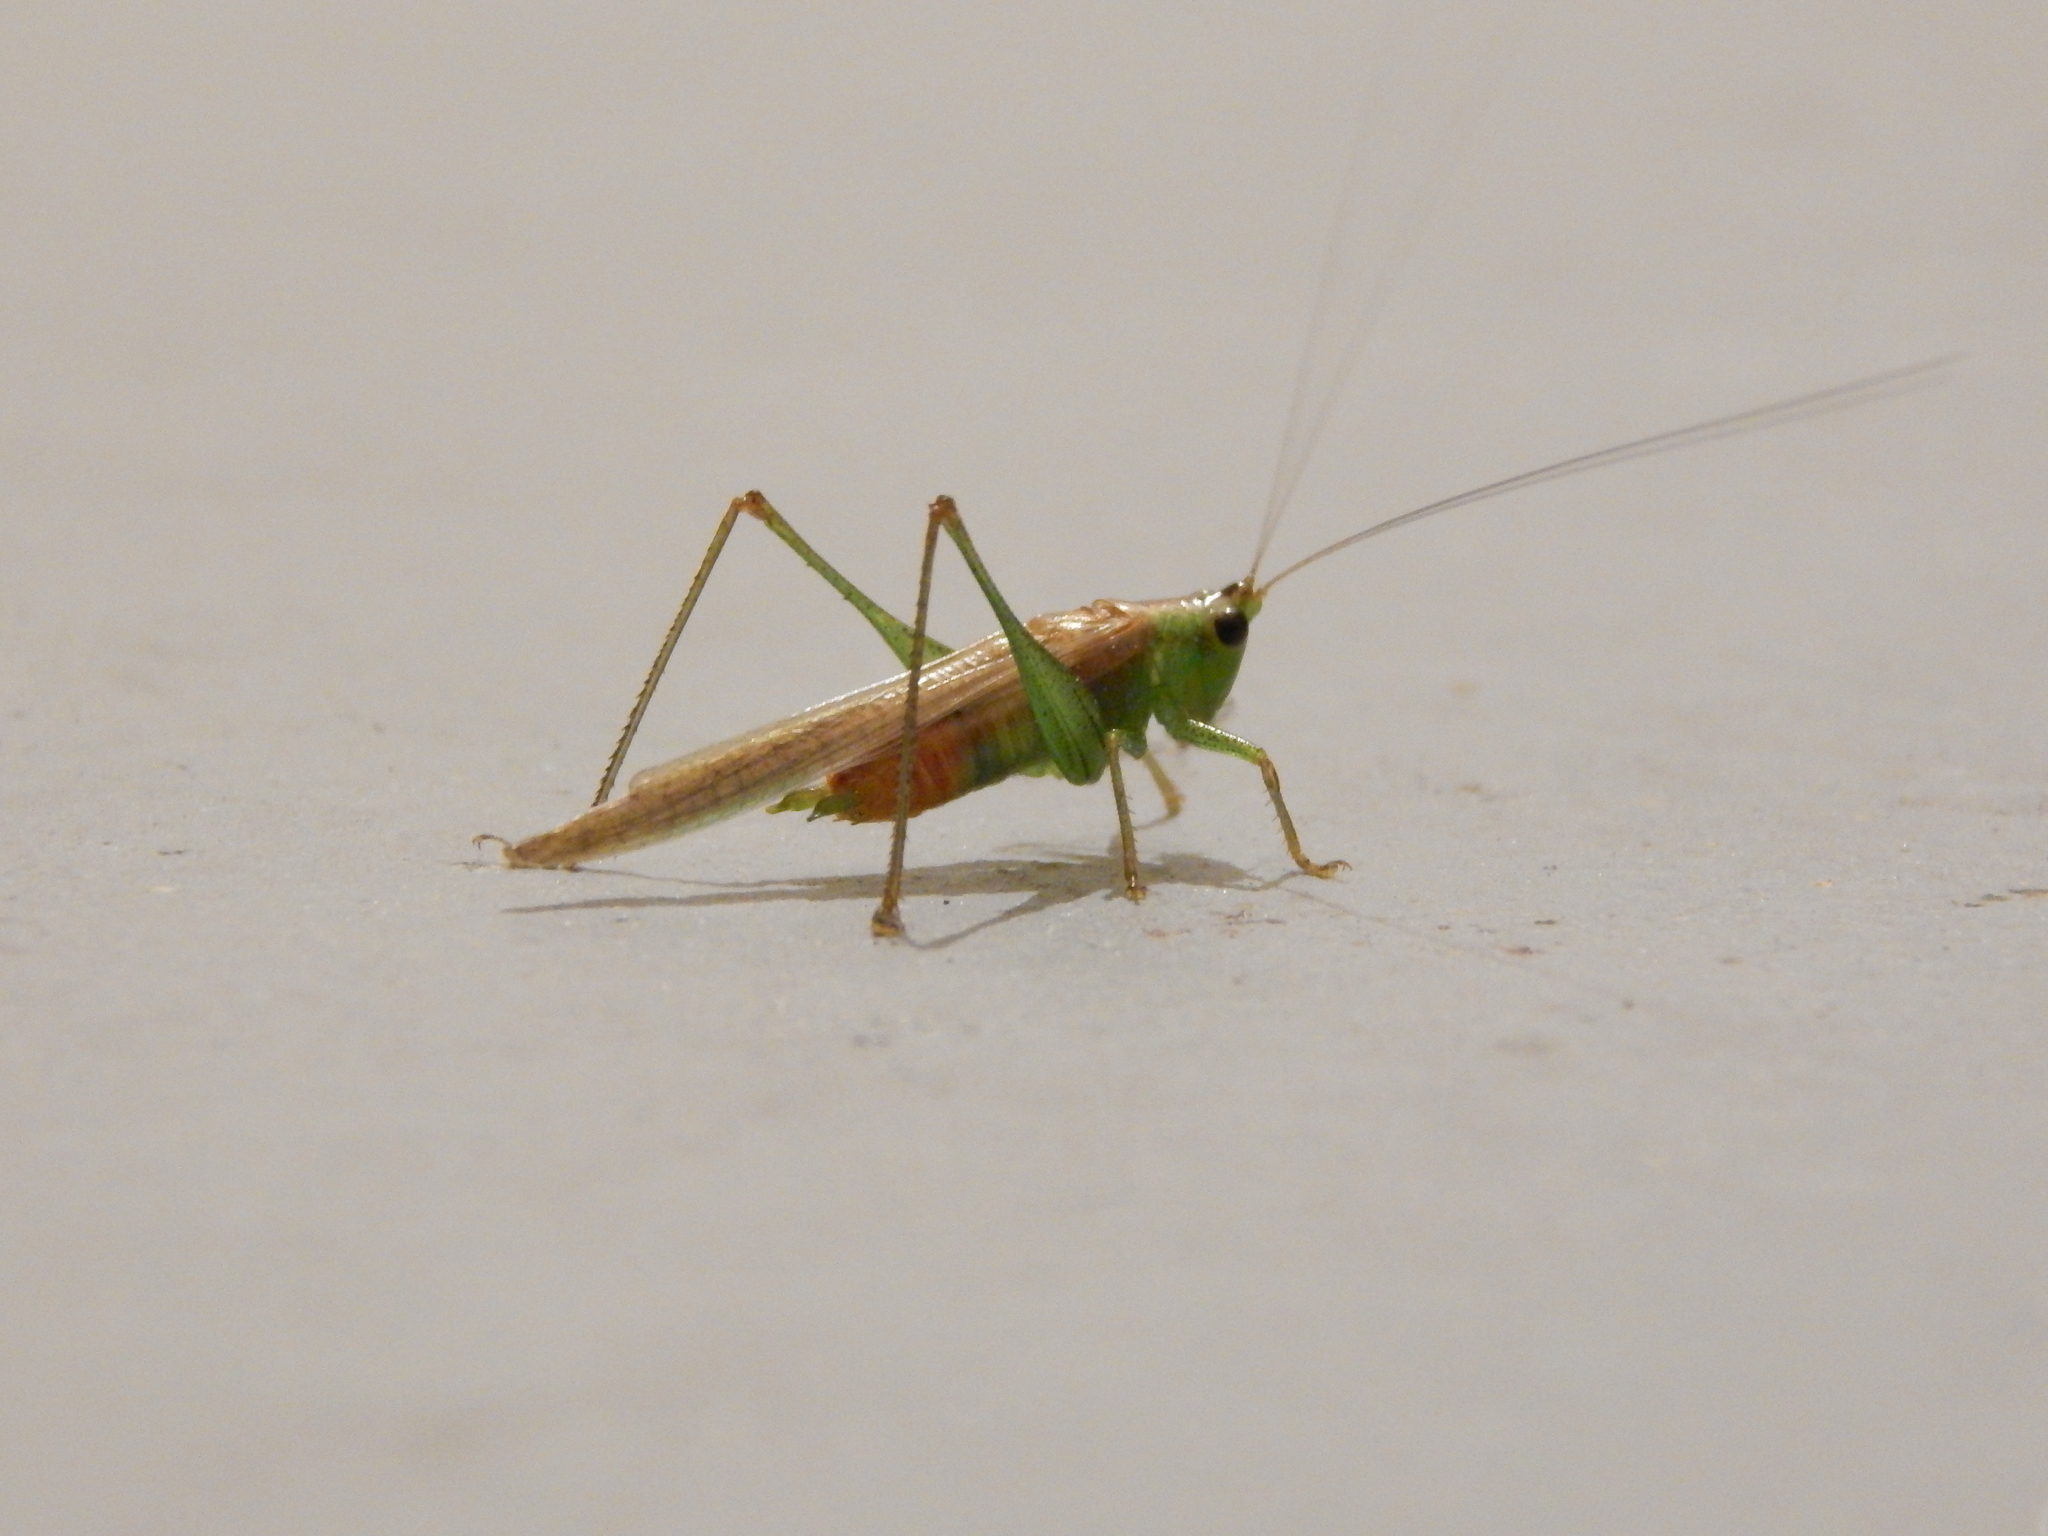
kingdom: Animalia
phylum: Arthropoda
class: Insecta
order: Orthoptera
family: Tettigoniidae
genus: Conocephalus
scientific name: Conocephalus
